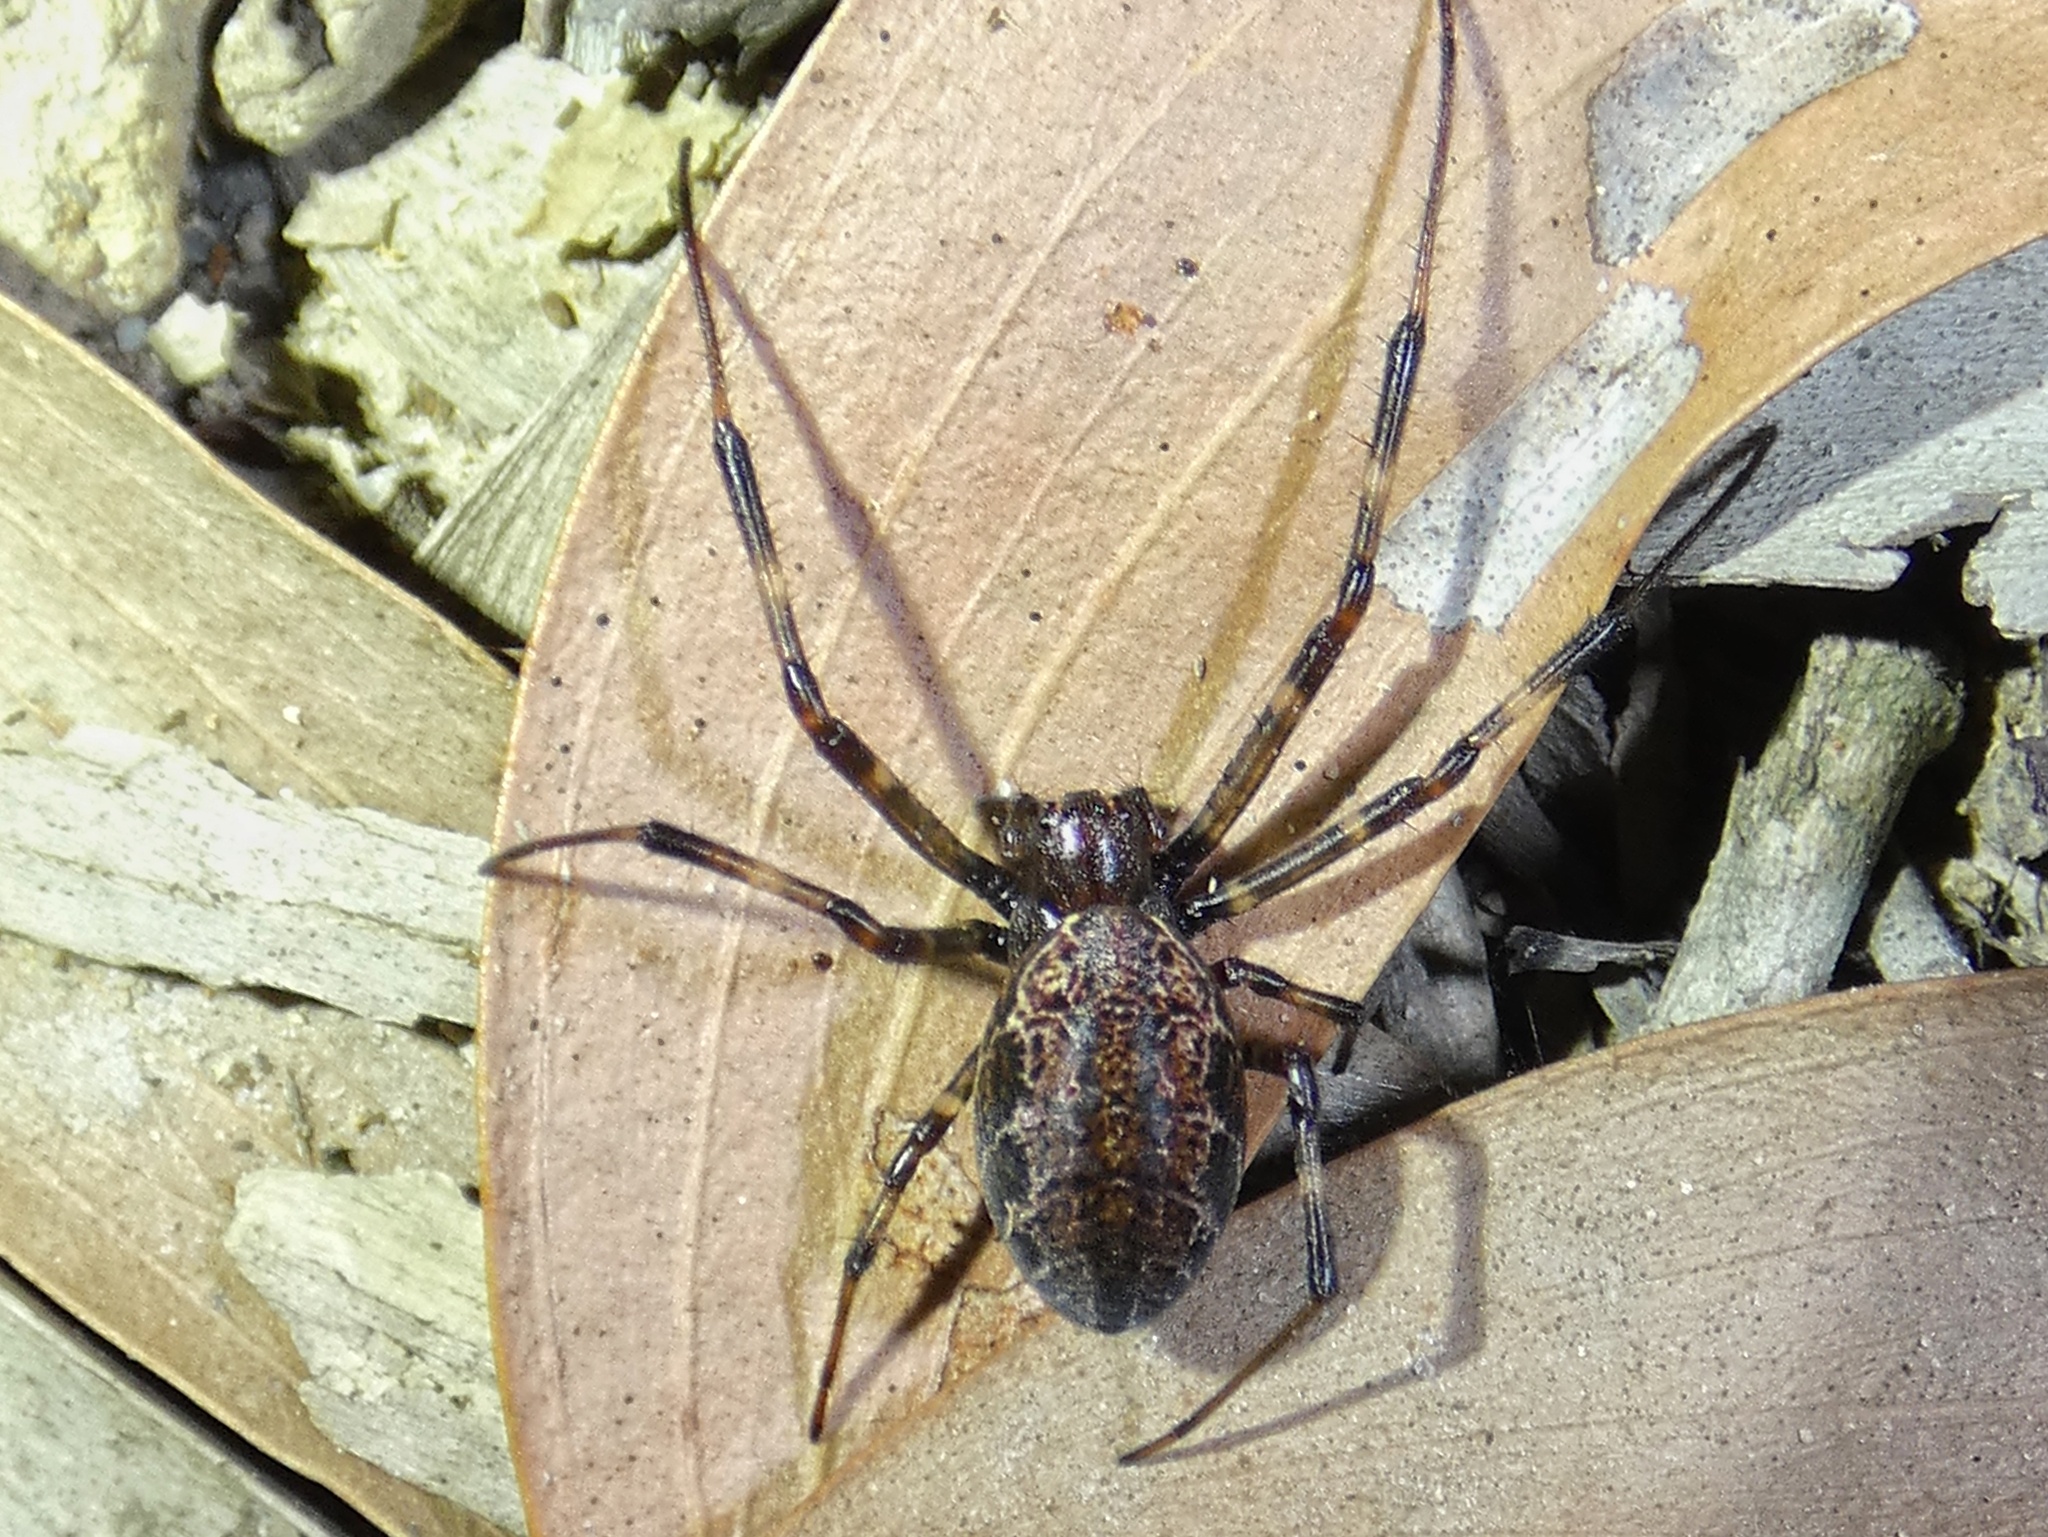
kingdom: Animalia
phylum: Arthropoda
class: Arachnida
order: Araneae
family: Araneidae
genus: Nephilengys
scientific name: Nephilengys papuana
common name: Papuan hermit spider
